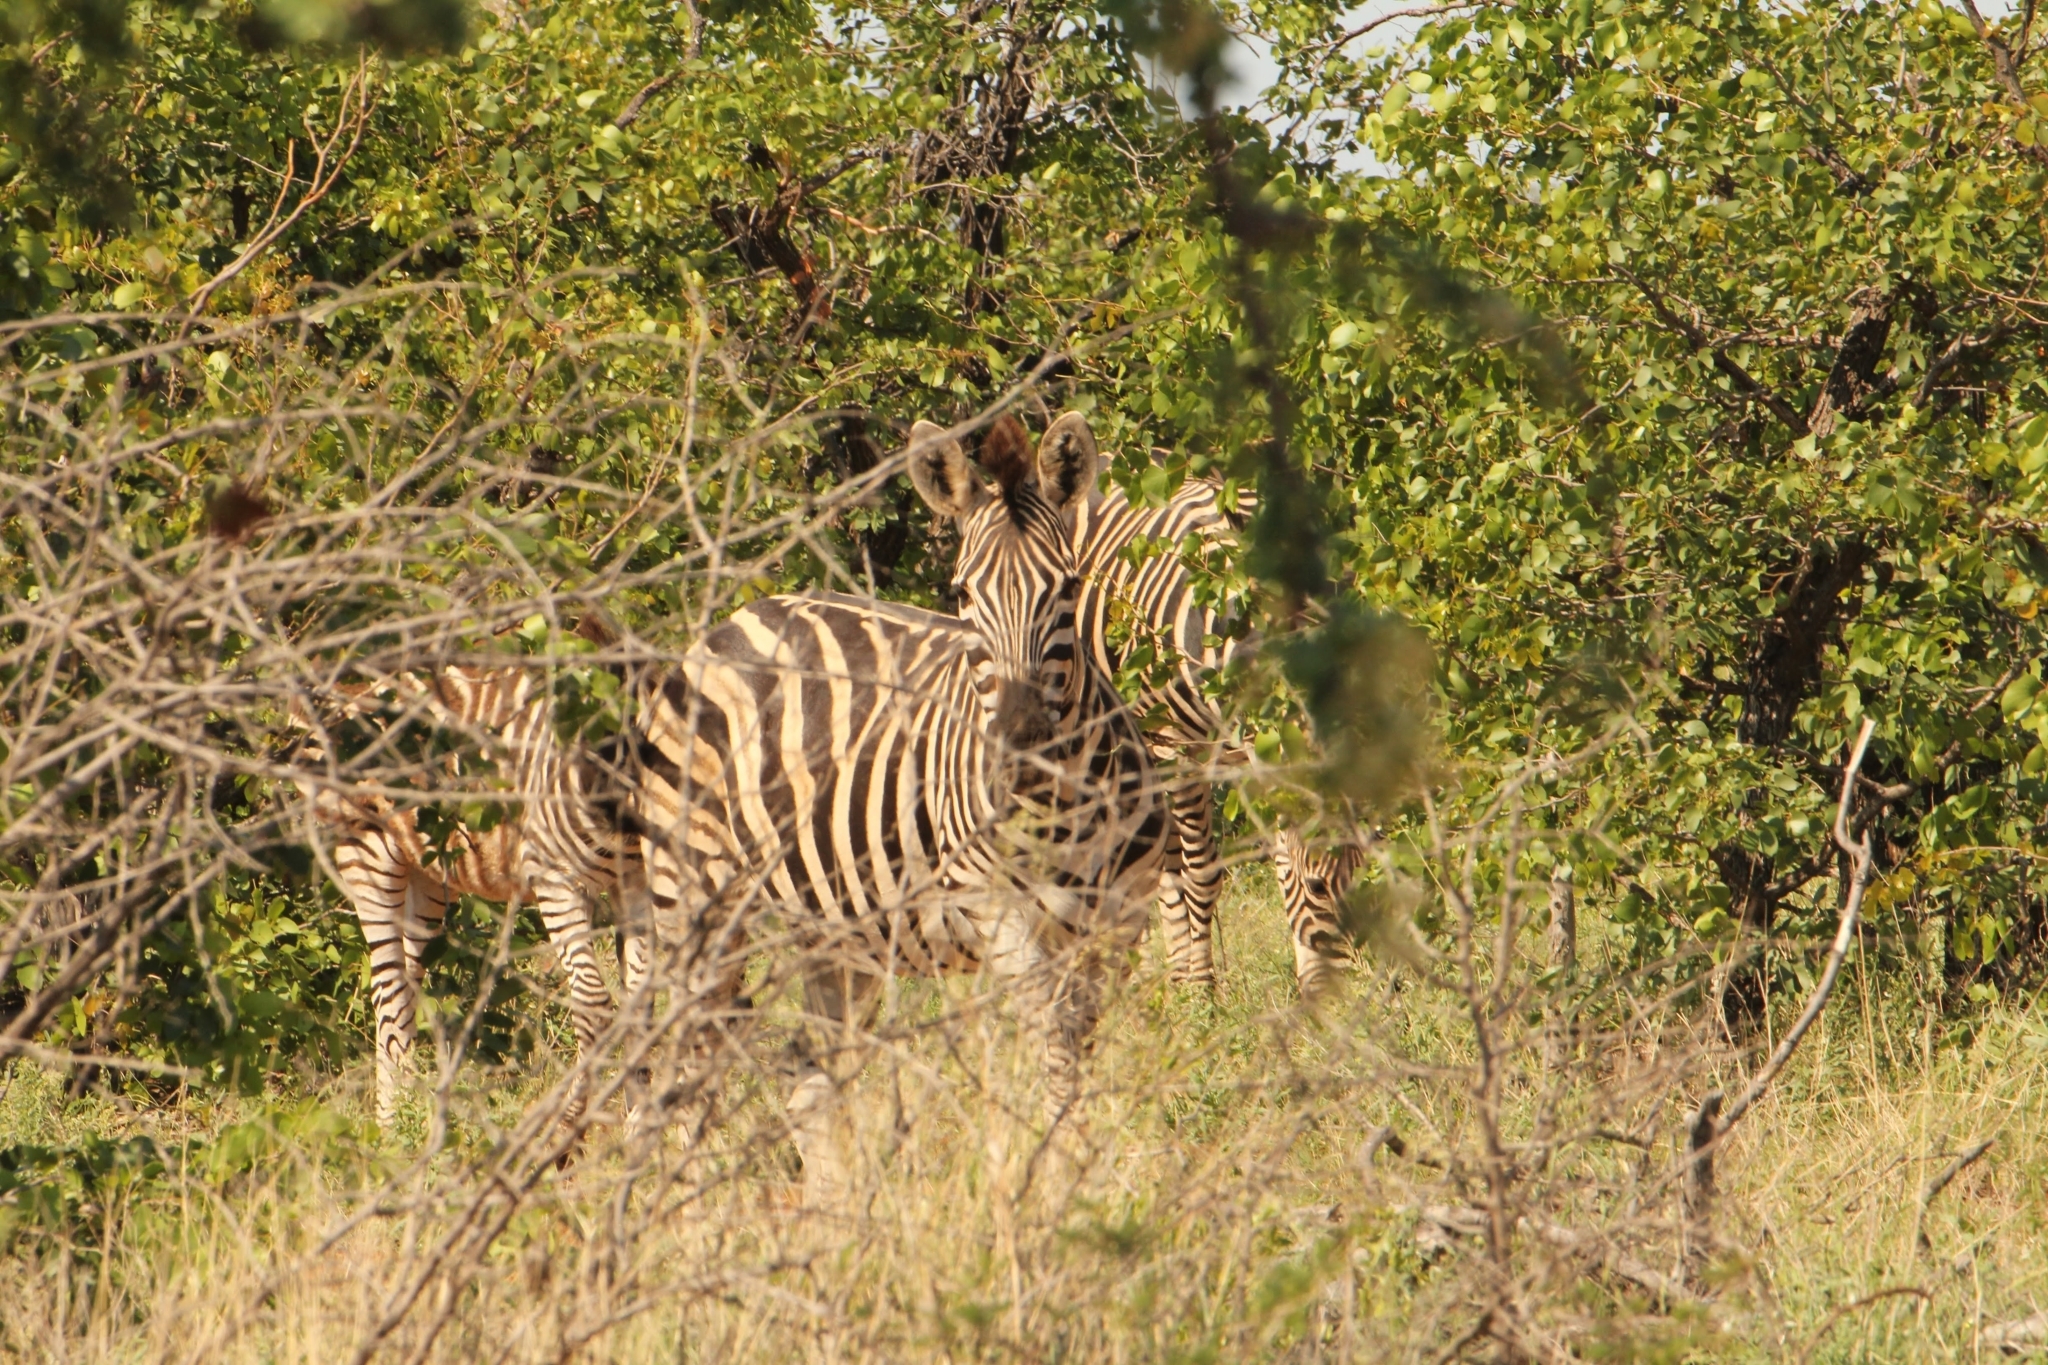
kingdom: Animalia
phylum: Chordata
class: Mammalia
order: Perissodactyla
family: Equidae
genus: Equus
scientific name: Equus quagga
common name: Plains zebra
